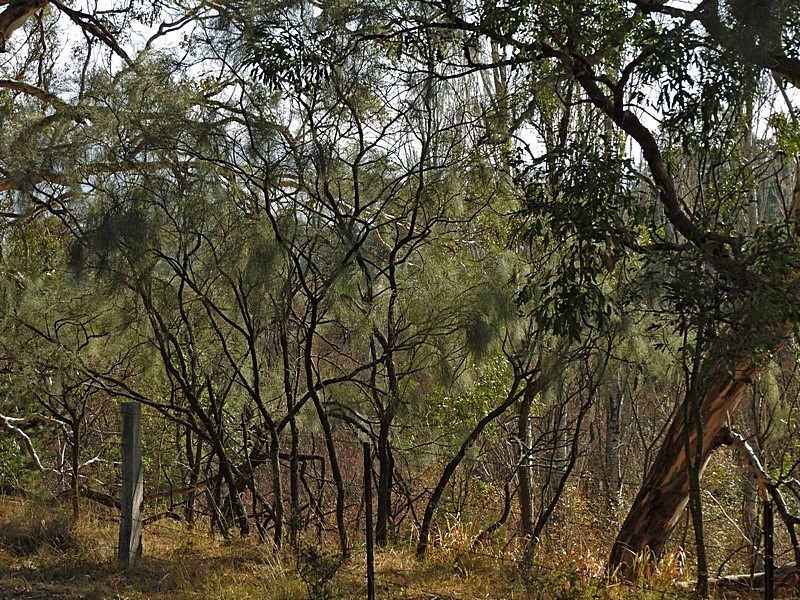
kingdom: Plantae
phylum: Tracheophyta
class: Magnoliopsida
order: Fabales
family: Fabaceae
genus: Jacksonia
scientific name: Jacksonia scoparia
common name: Dogwood
